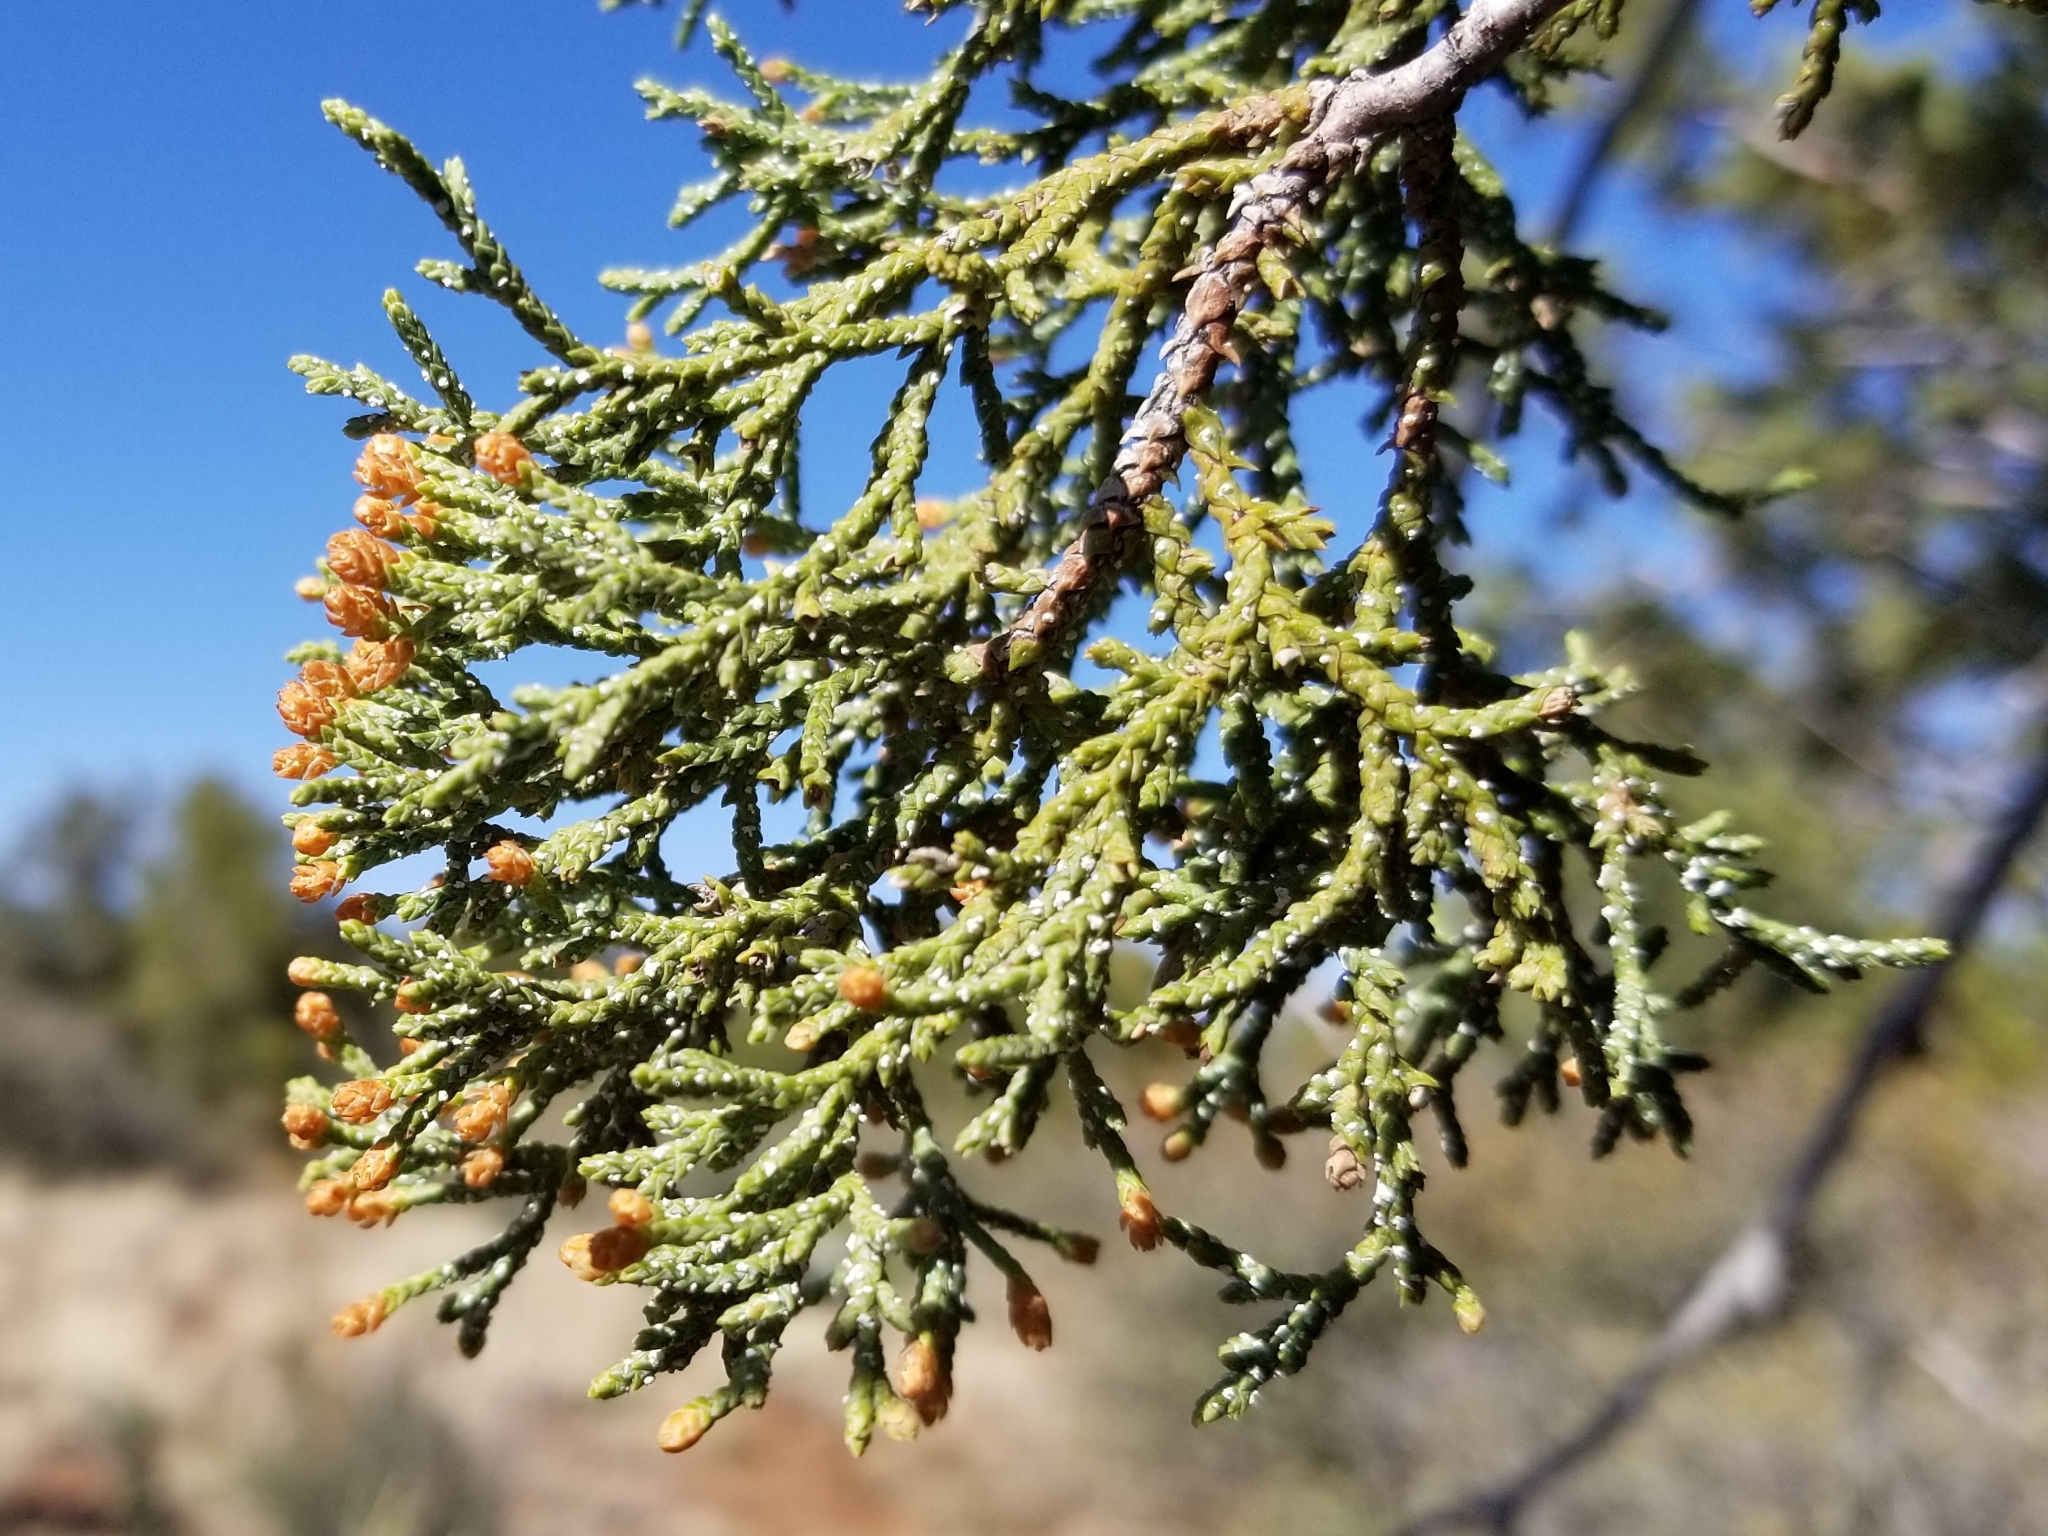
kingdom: Plantae
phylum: Tracheophyta
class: Pinopsida
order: Pinales
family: Cupressaceae
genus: Juniperus
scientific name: Juniperus deppeana
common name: Alligator juniper
